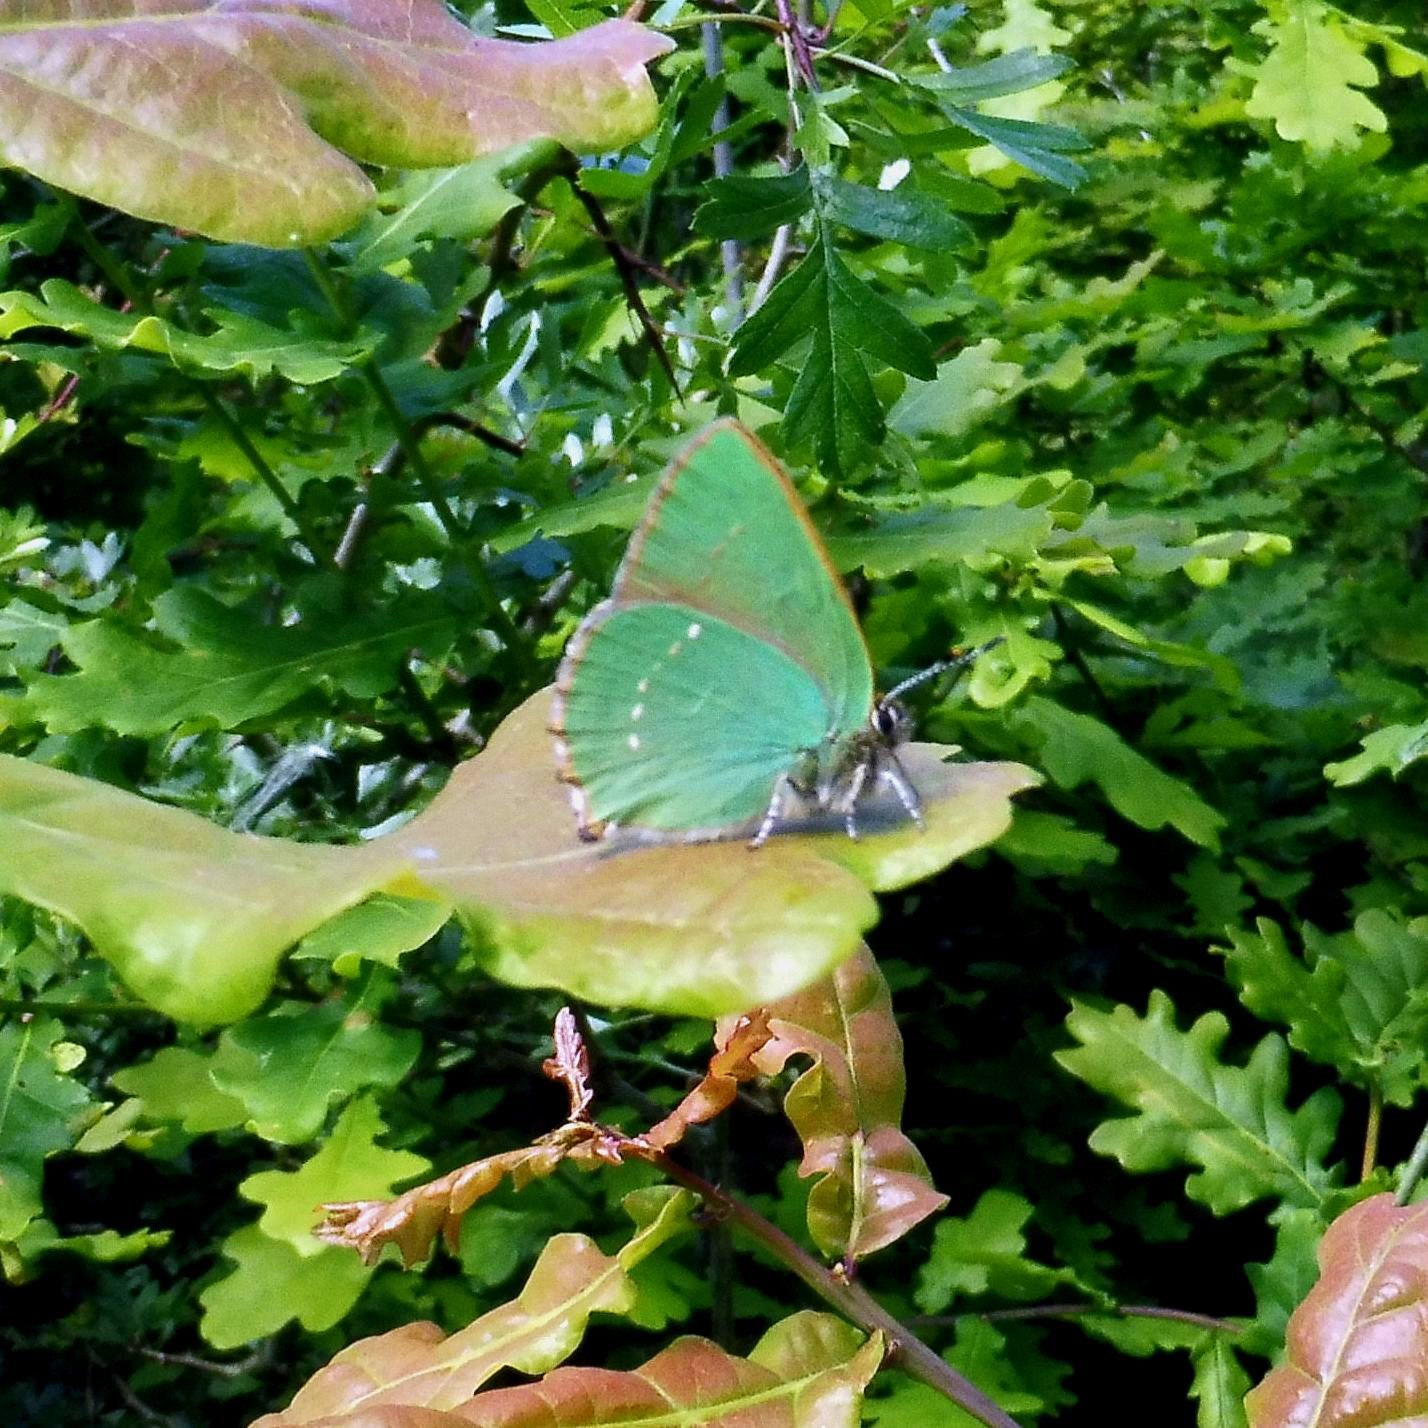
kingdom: Animalia
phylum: Arthropoda
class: Insecta
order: Lepidoptera
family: Lycaenidae
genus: Callophrys
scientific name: Callophrys rubi
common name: Green hairstreak
